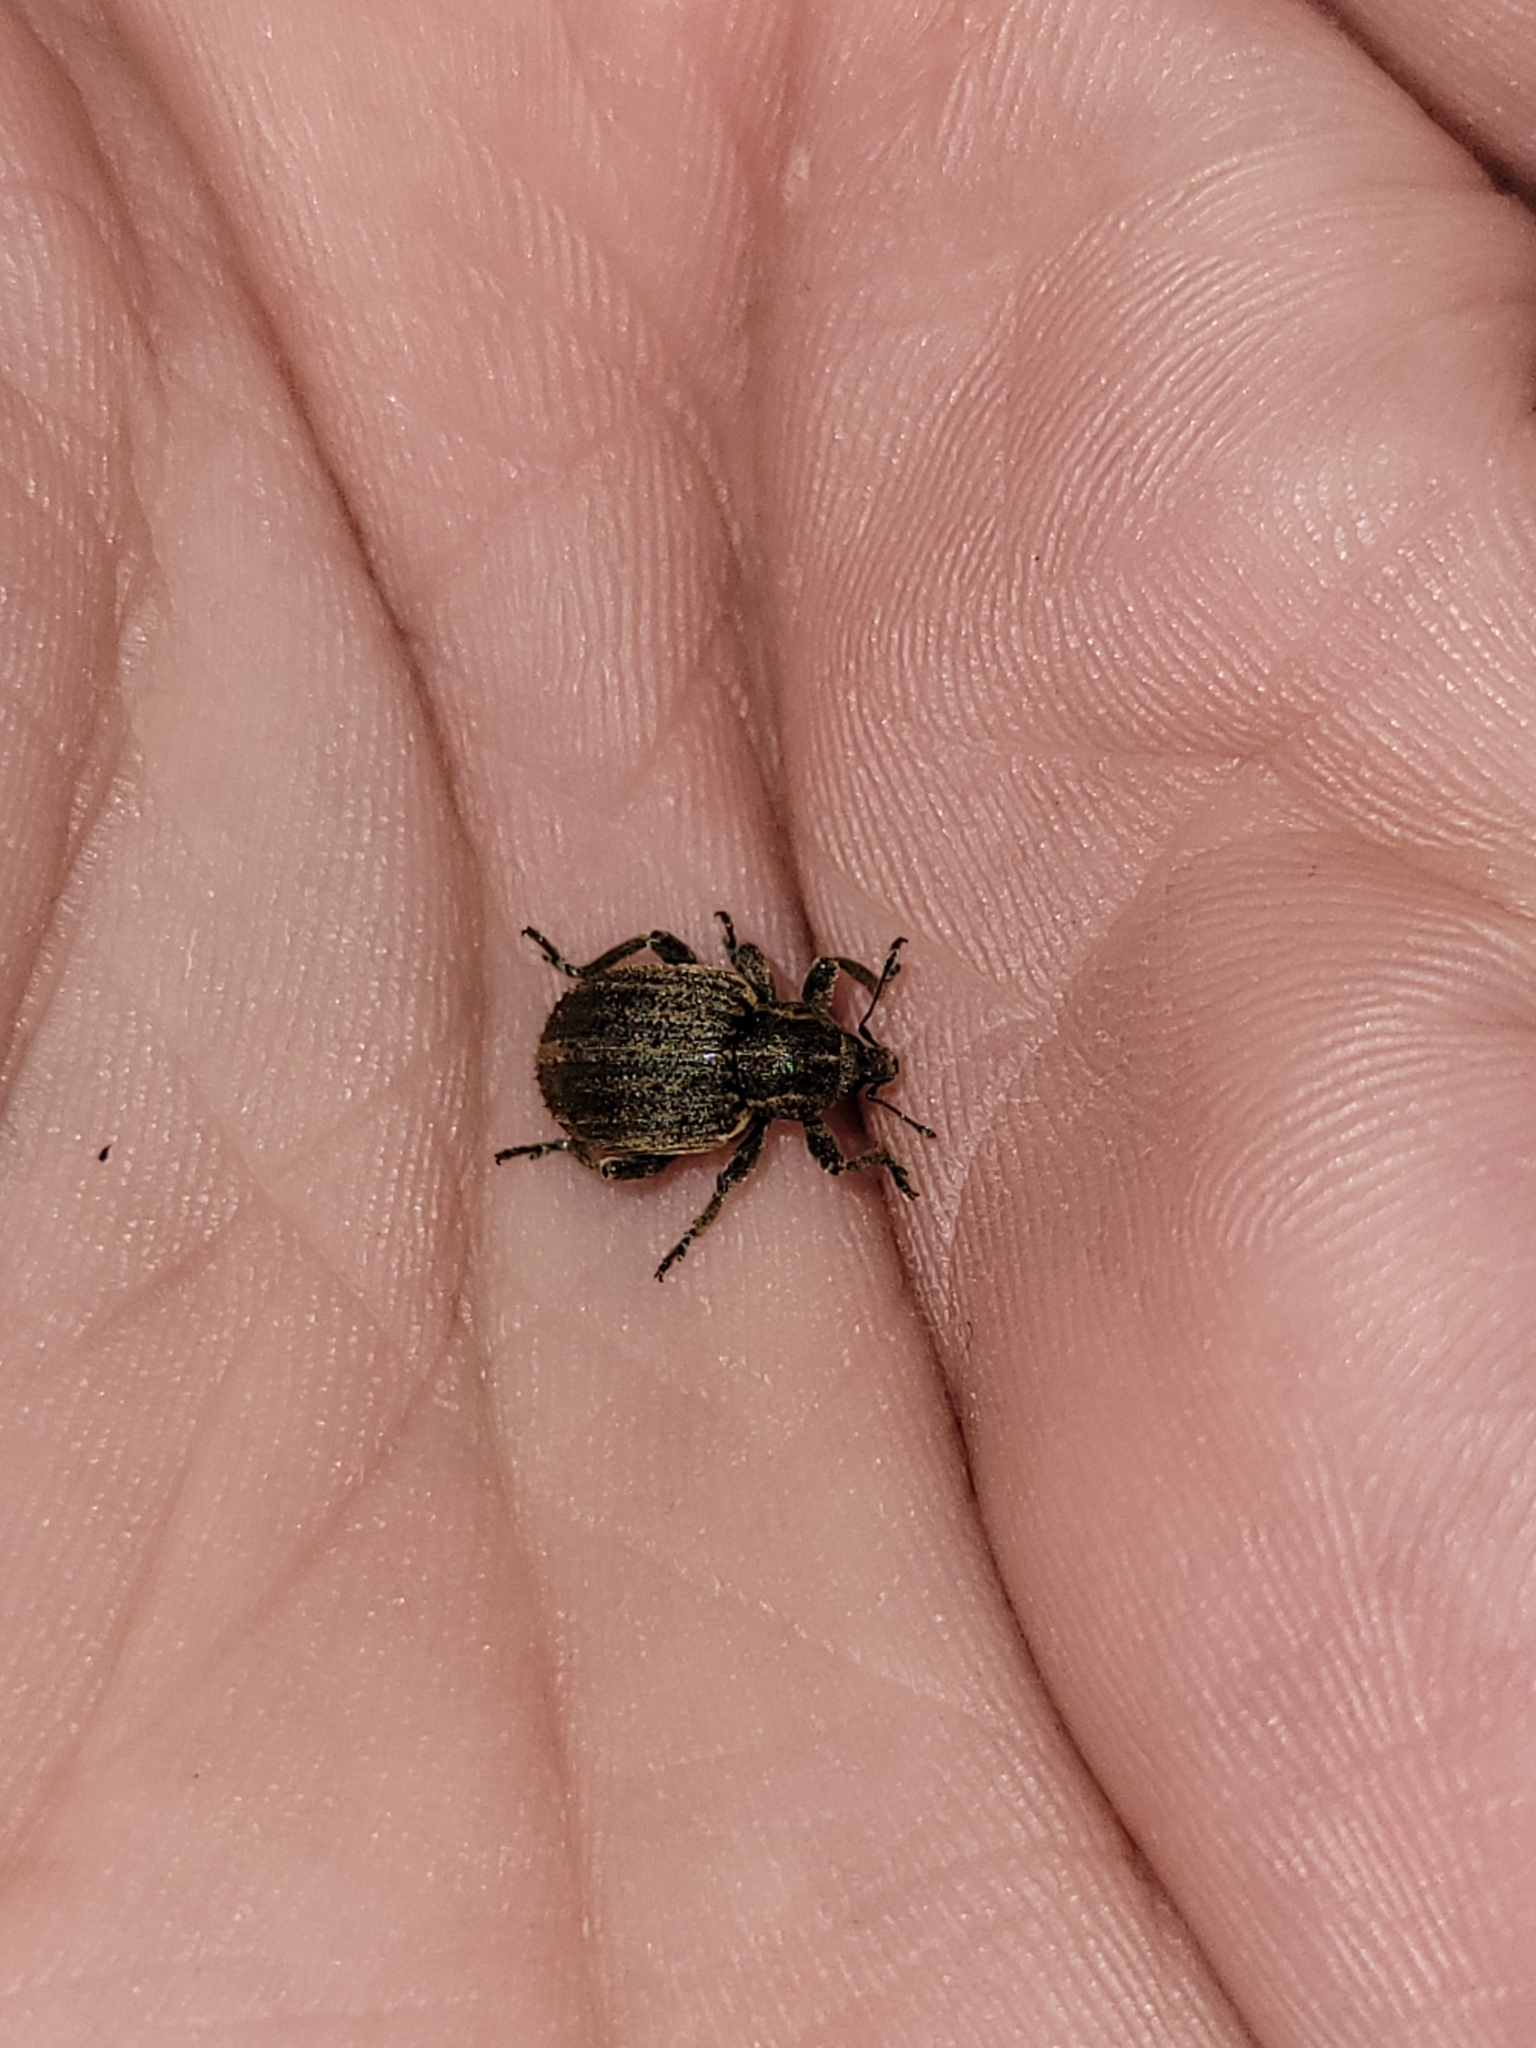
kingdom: Animalia
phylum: Arthropoda
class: Insecta
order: Coleoptera
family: Curculionidae
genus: Brachypera
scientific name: Brachypera zoilus
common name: Clover leaf weevil
